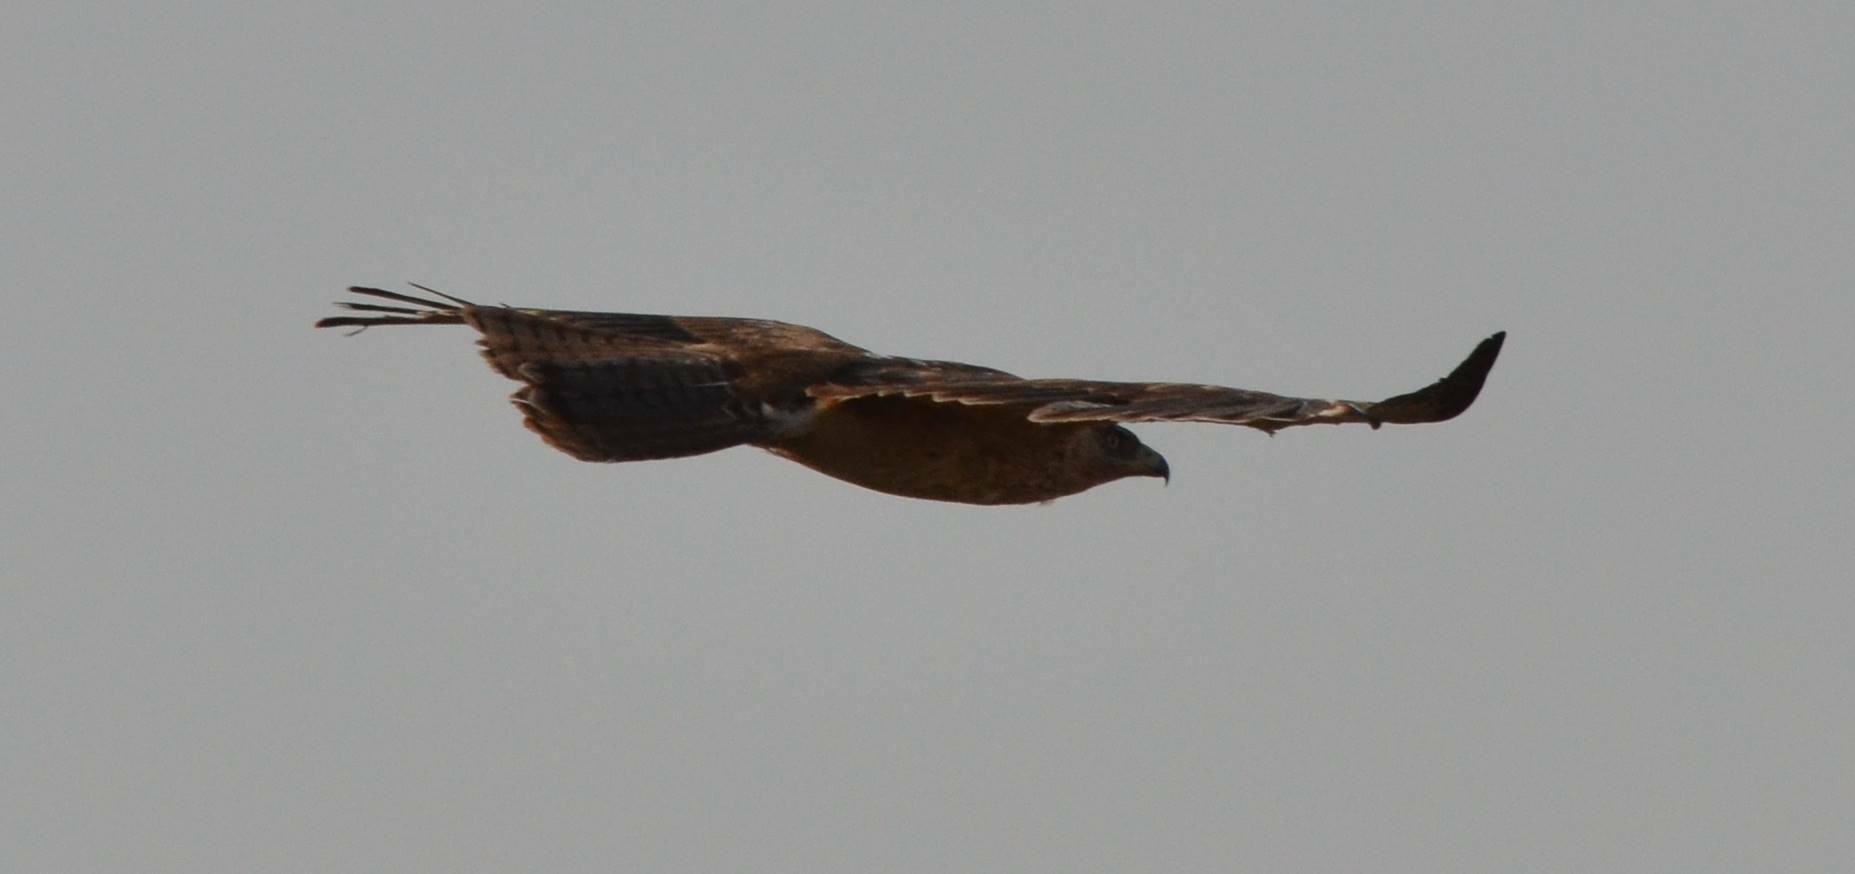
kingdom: Animalia
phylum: Chordata
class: Aves
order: Accipitriformes
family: Accipitridae
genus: Aquila
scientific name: Aquila fasciata
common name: Bonelli's eagle
